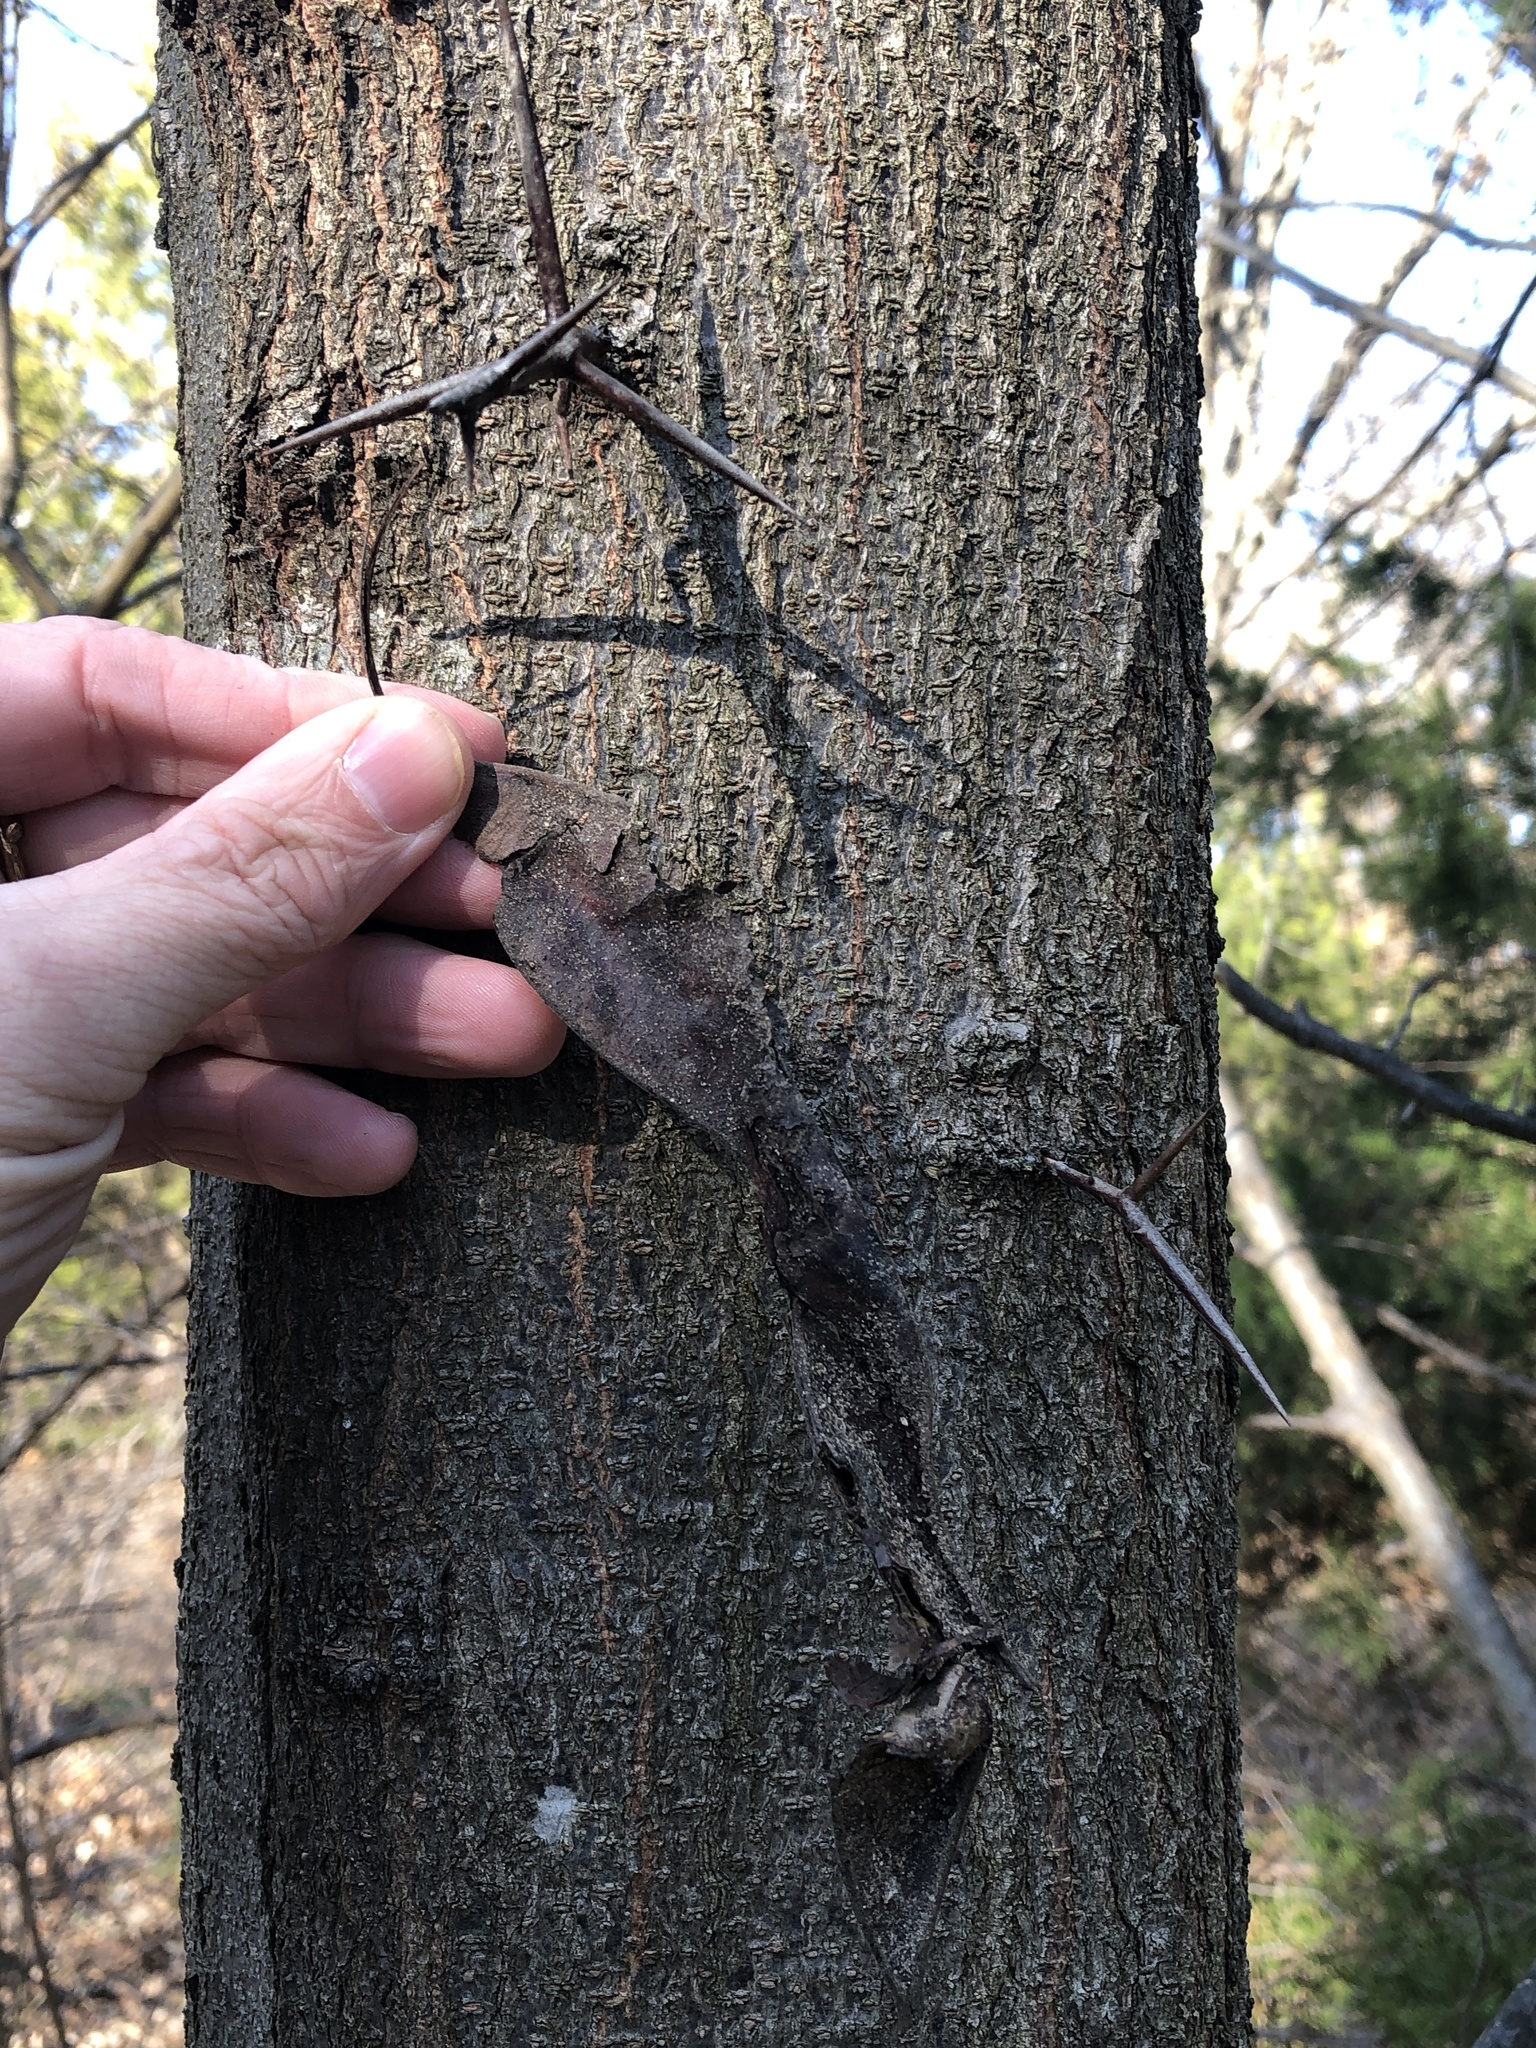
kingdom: Plantae
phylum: Tracheophyta
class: Magnoliopsida
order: Fabales
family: Fabaceae
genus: Gleditsia
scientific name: Gleditsia triacanthos
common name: Common honeylocust
